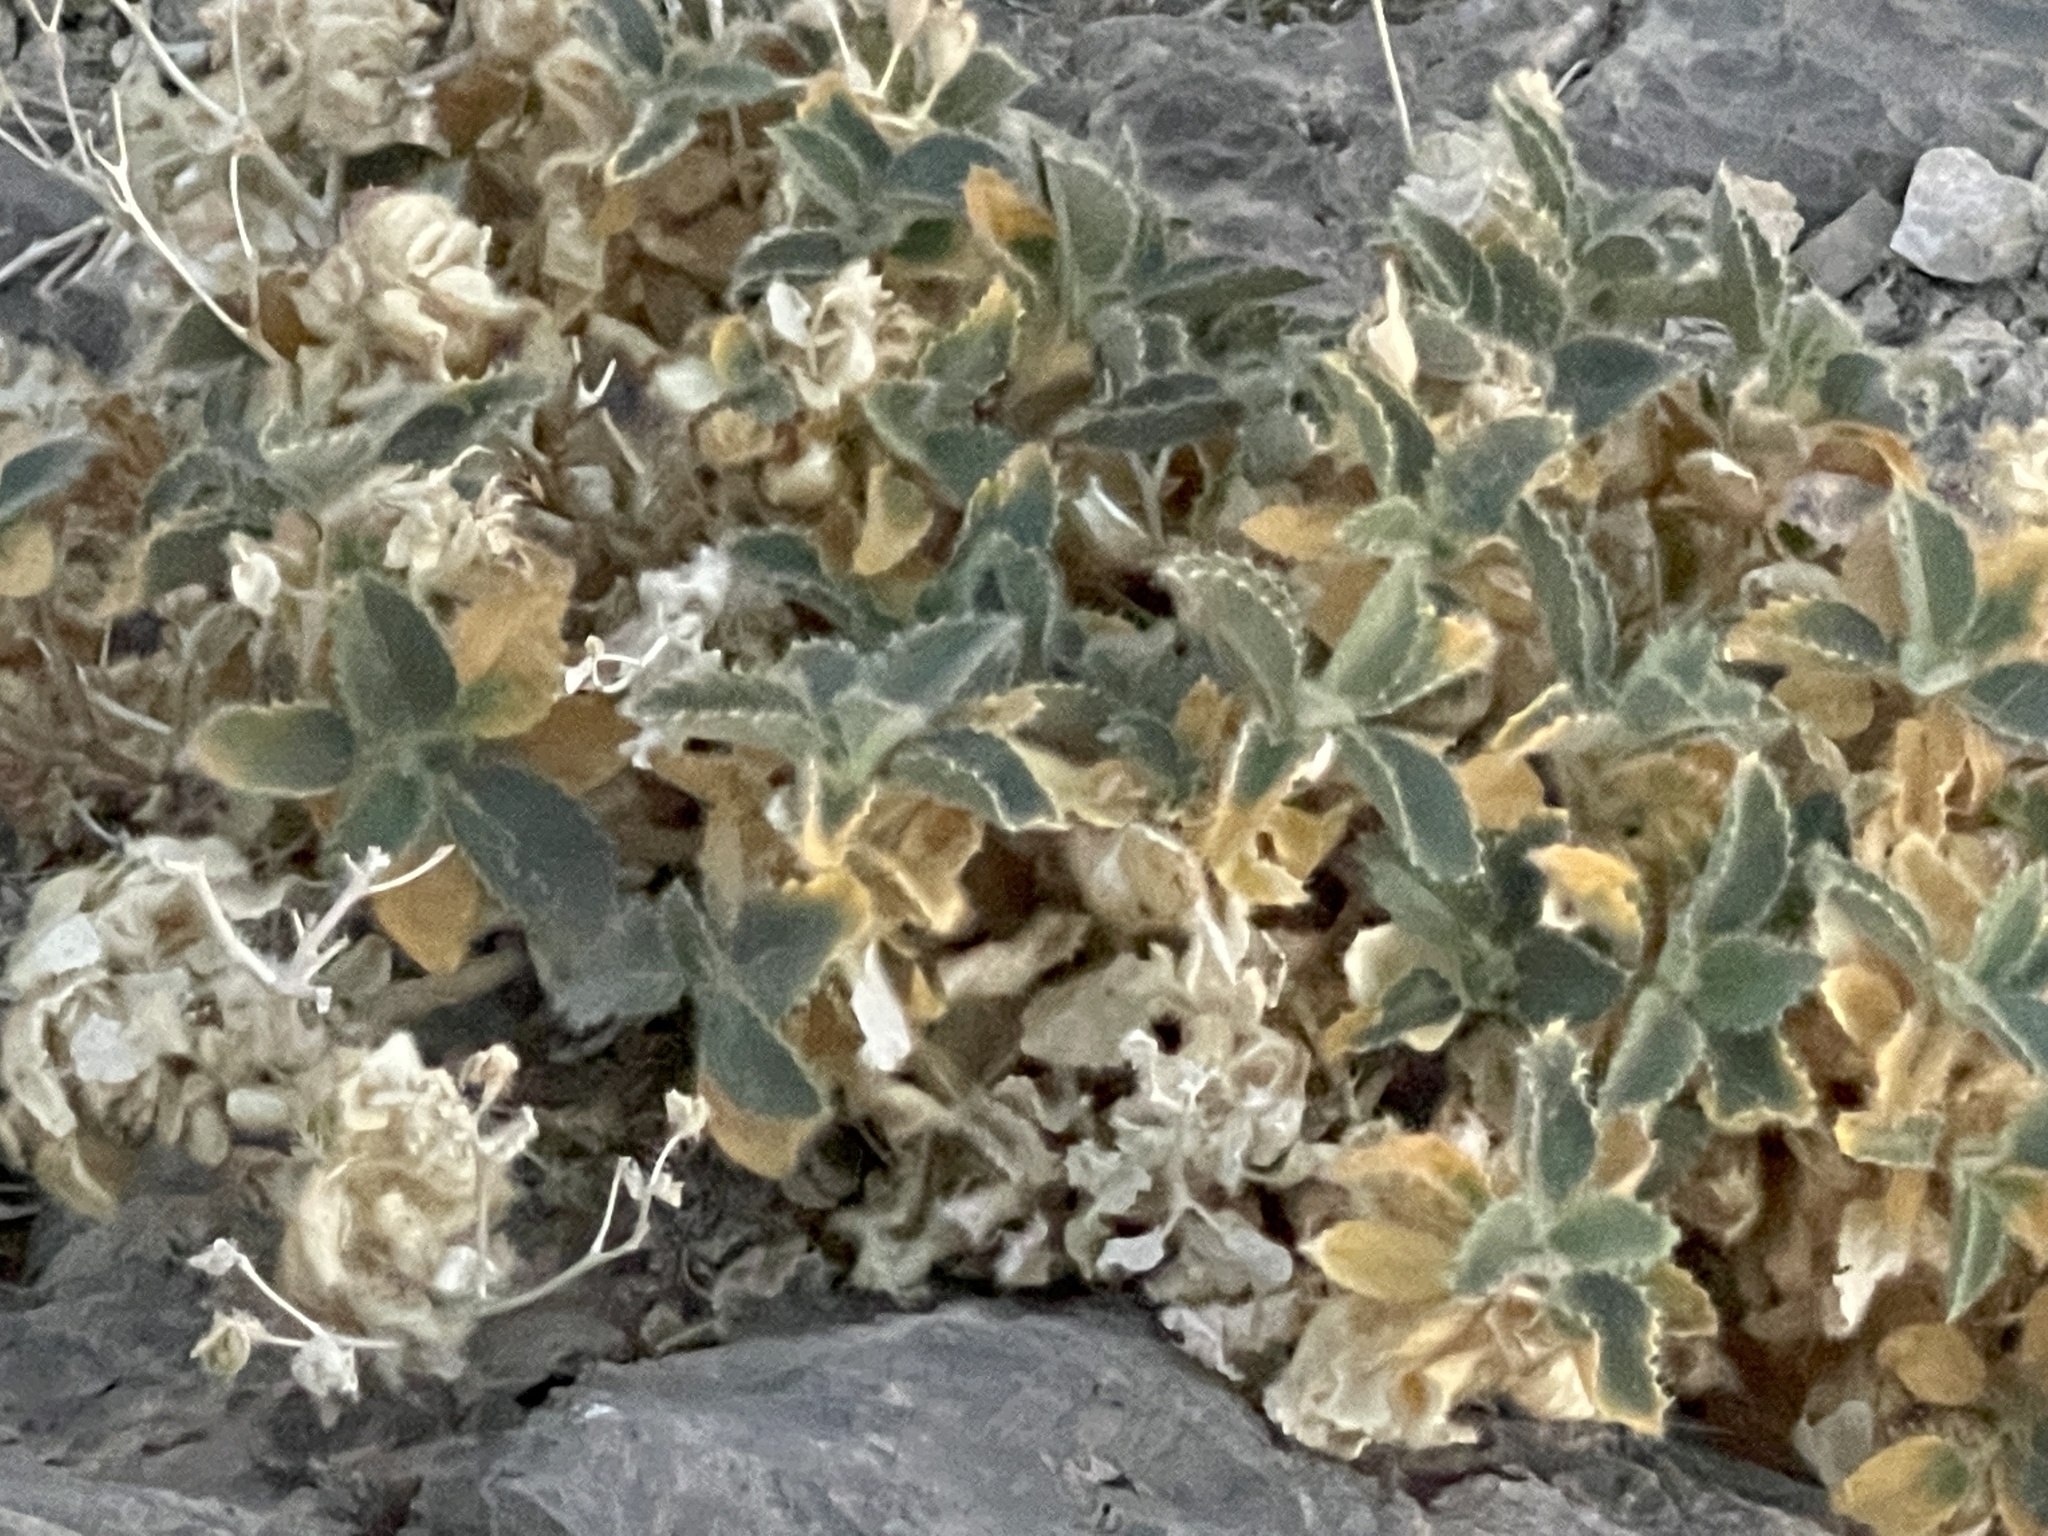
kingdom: Plantae
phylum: Tracheophyta
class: Magnoliopsida
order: Cornales
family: Loasaceae
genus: Eucnide
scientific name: Eucnide urens
